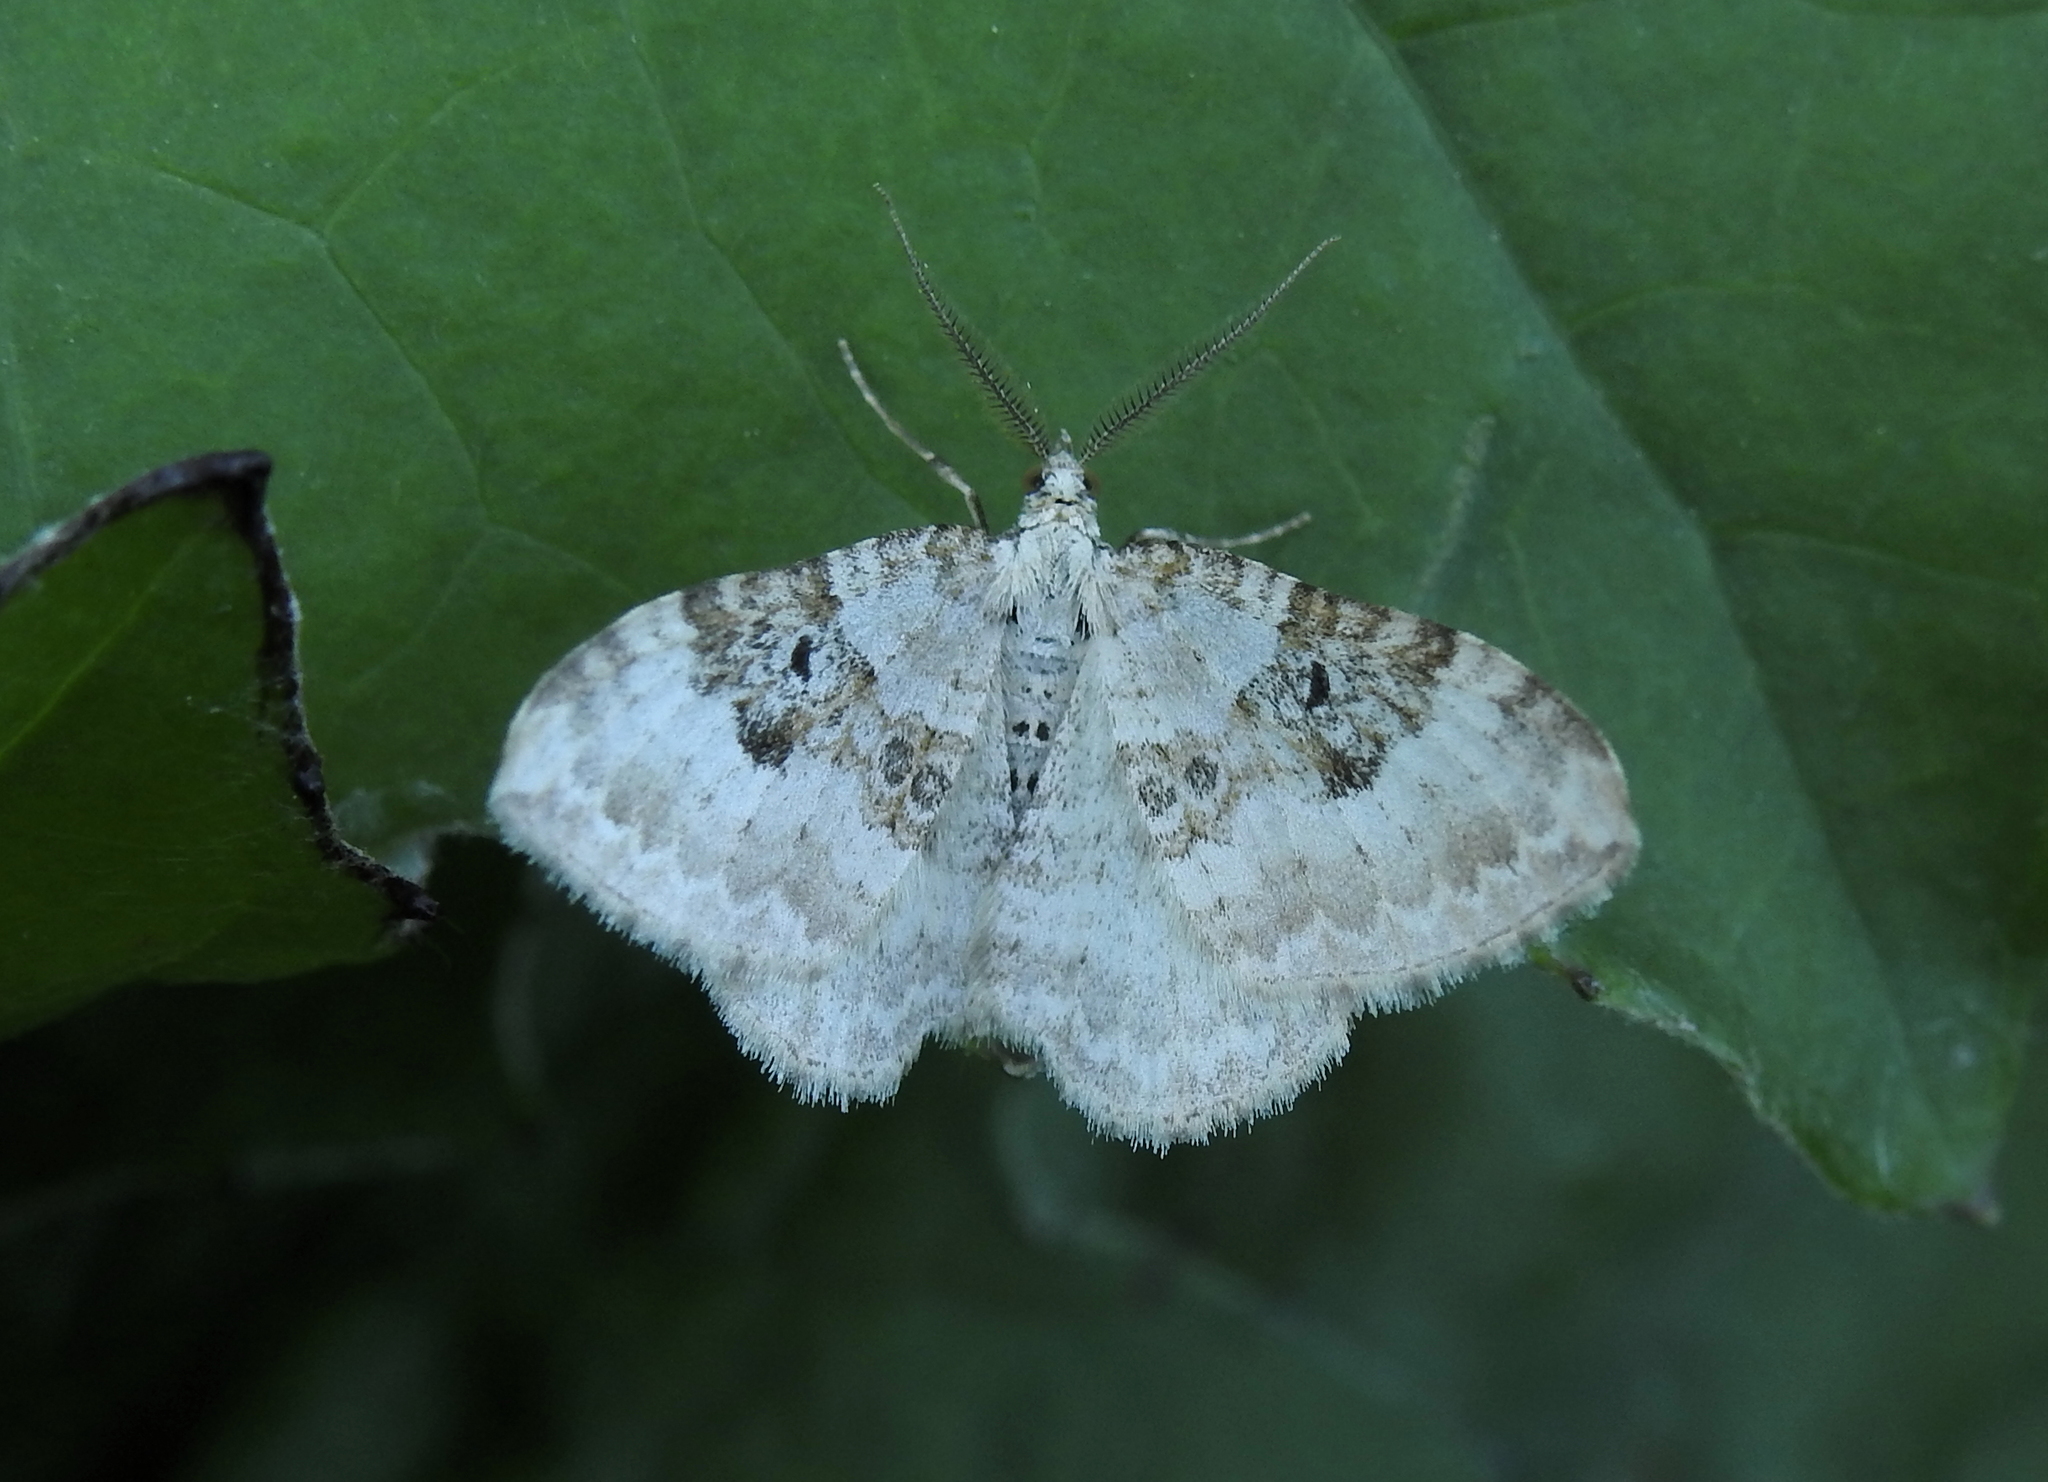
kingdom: Animalia
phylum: Arthropoda
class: Insecta
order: Lepidoptera
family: Geometridae
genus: Xanthorhoe
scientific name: Xanthorhoe montanata
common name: Silver-ground carpet
